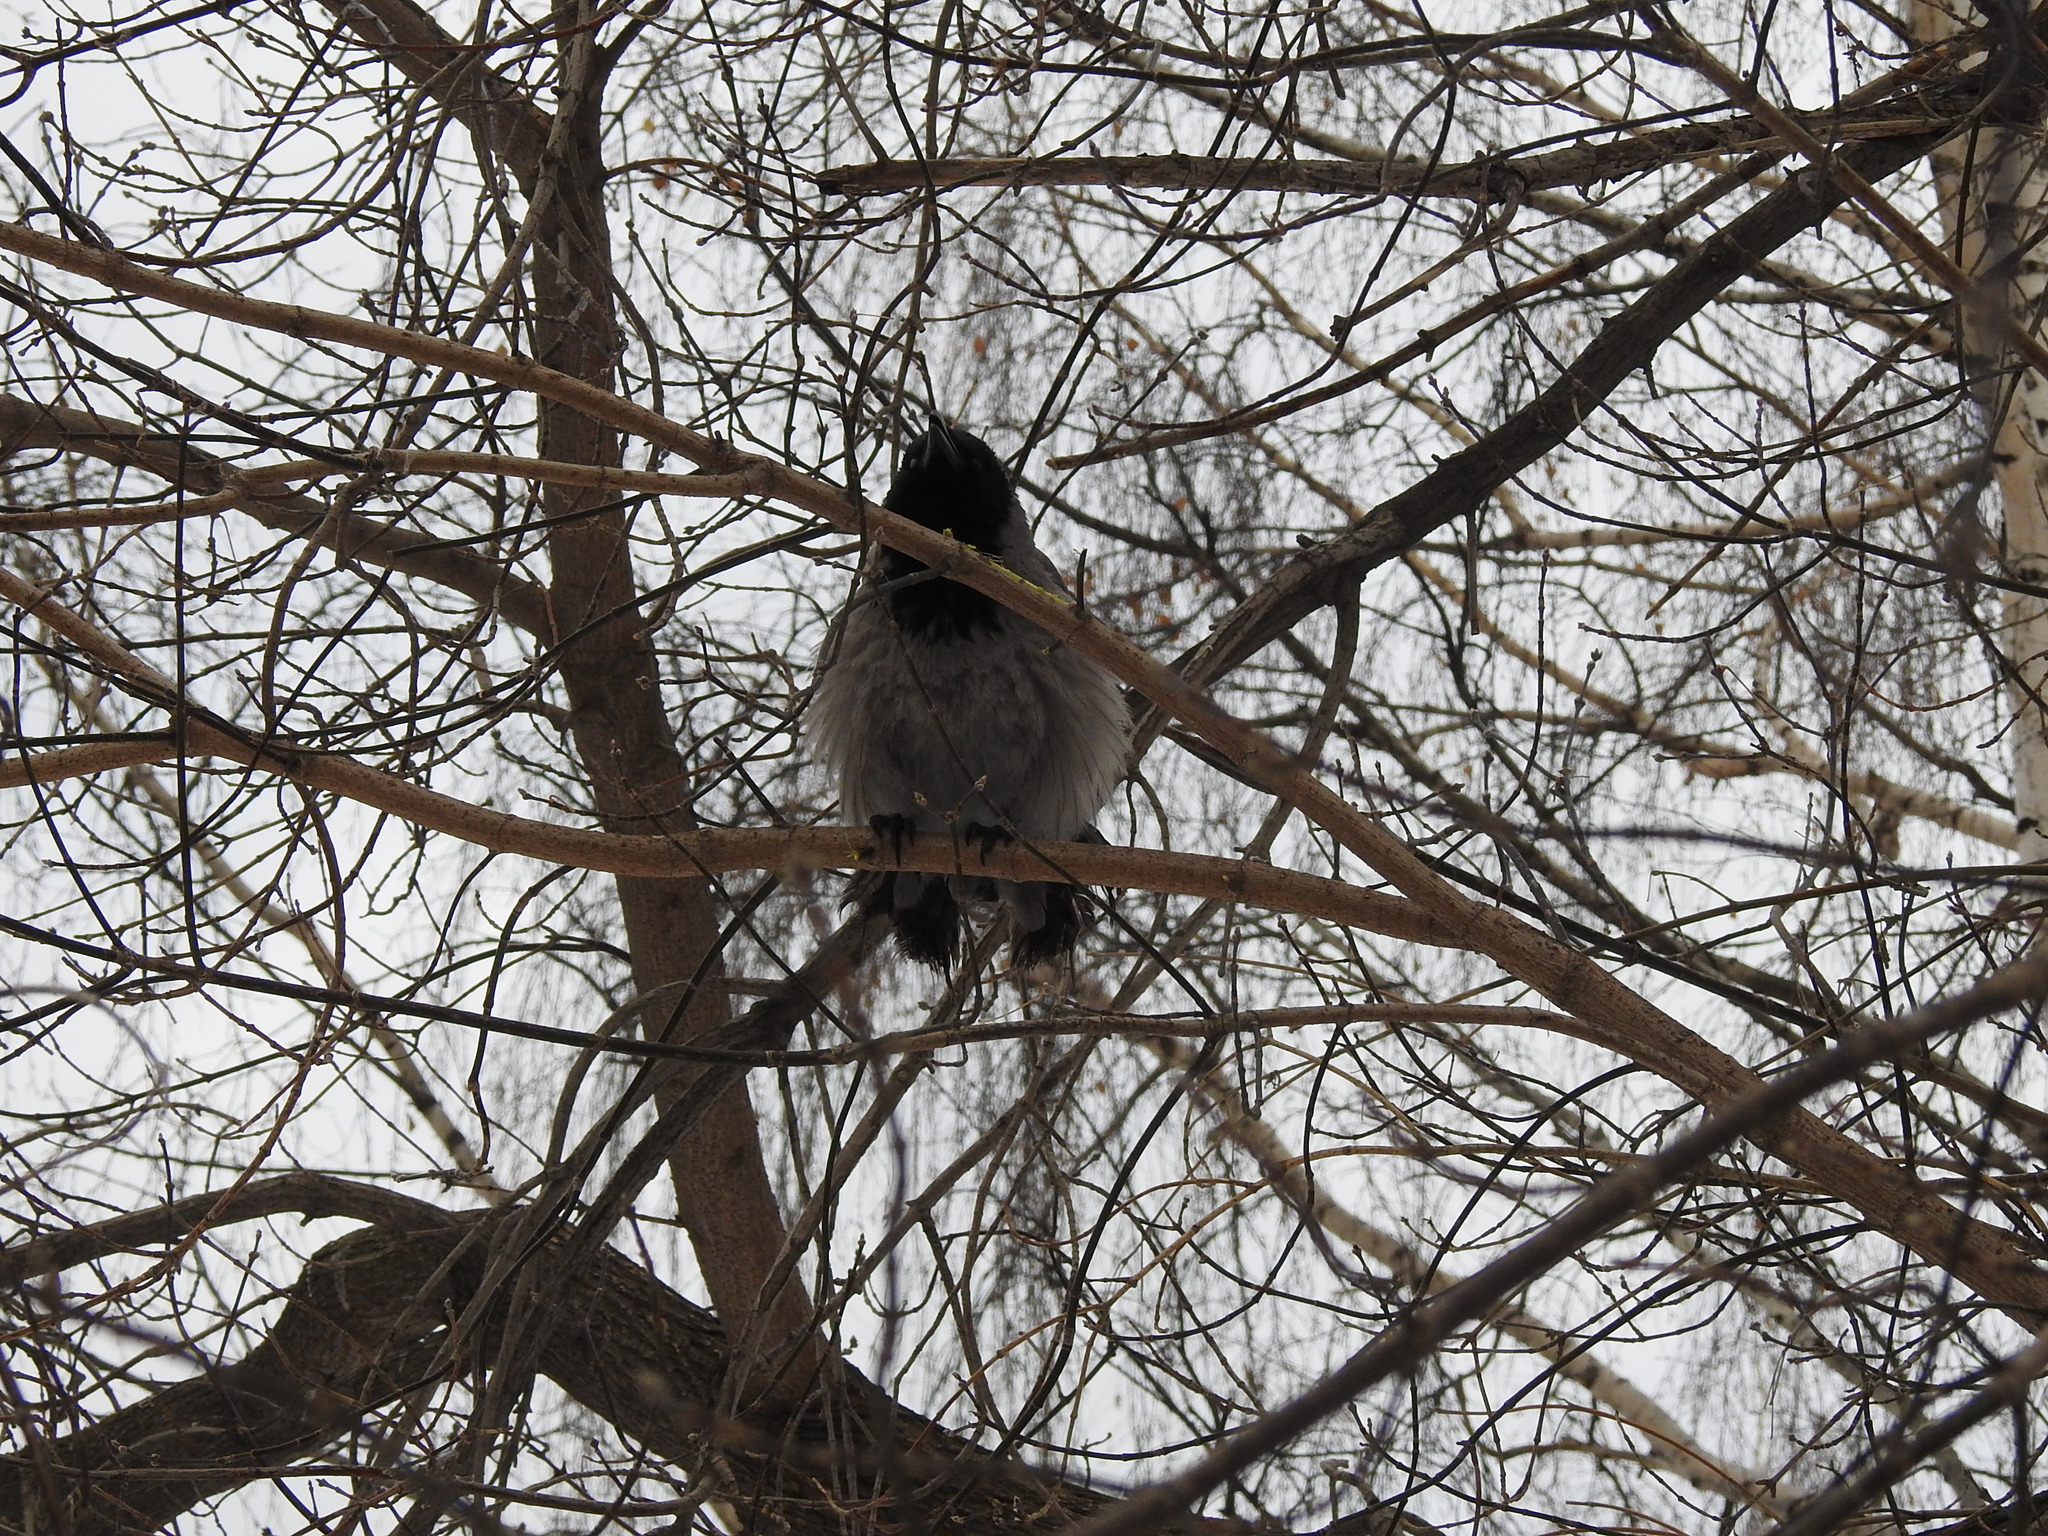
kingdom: Animalia
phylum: Chordata
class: Aves
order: Passeriformes
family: Corvidae
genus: Corvus
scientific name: Corvus cornix
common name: Hooded crow
